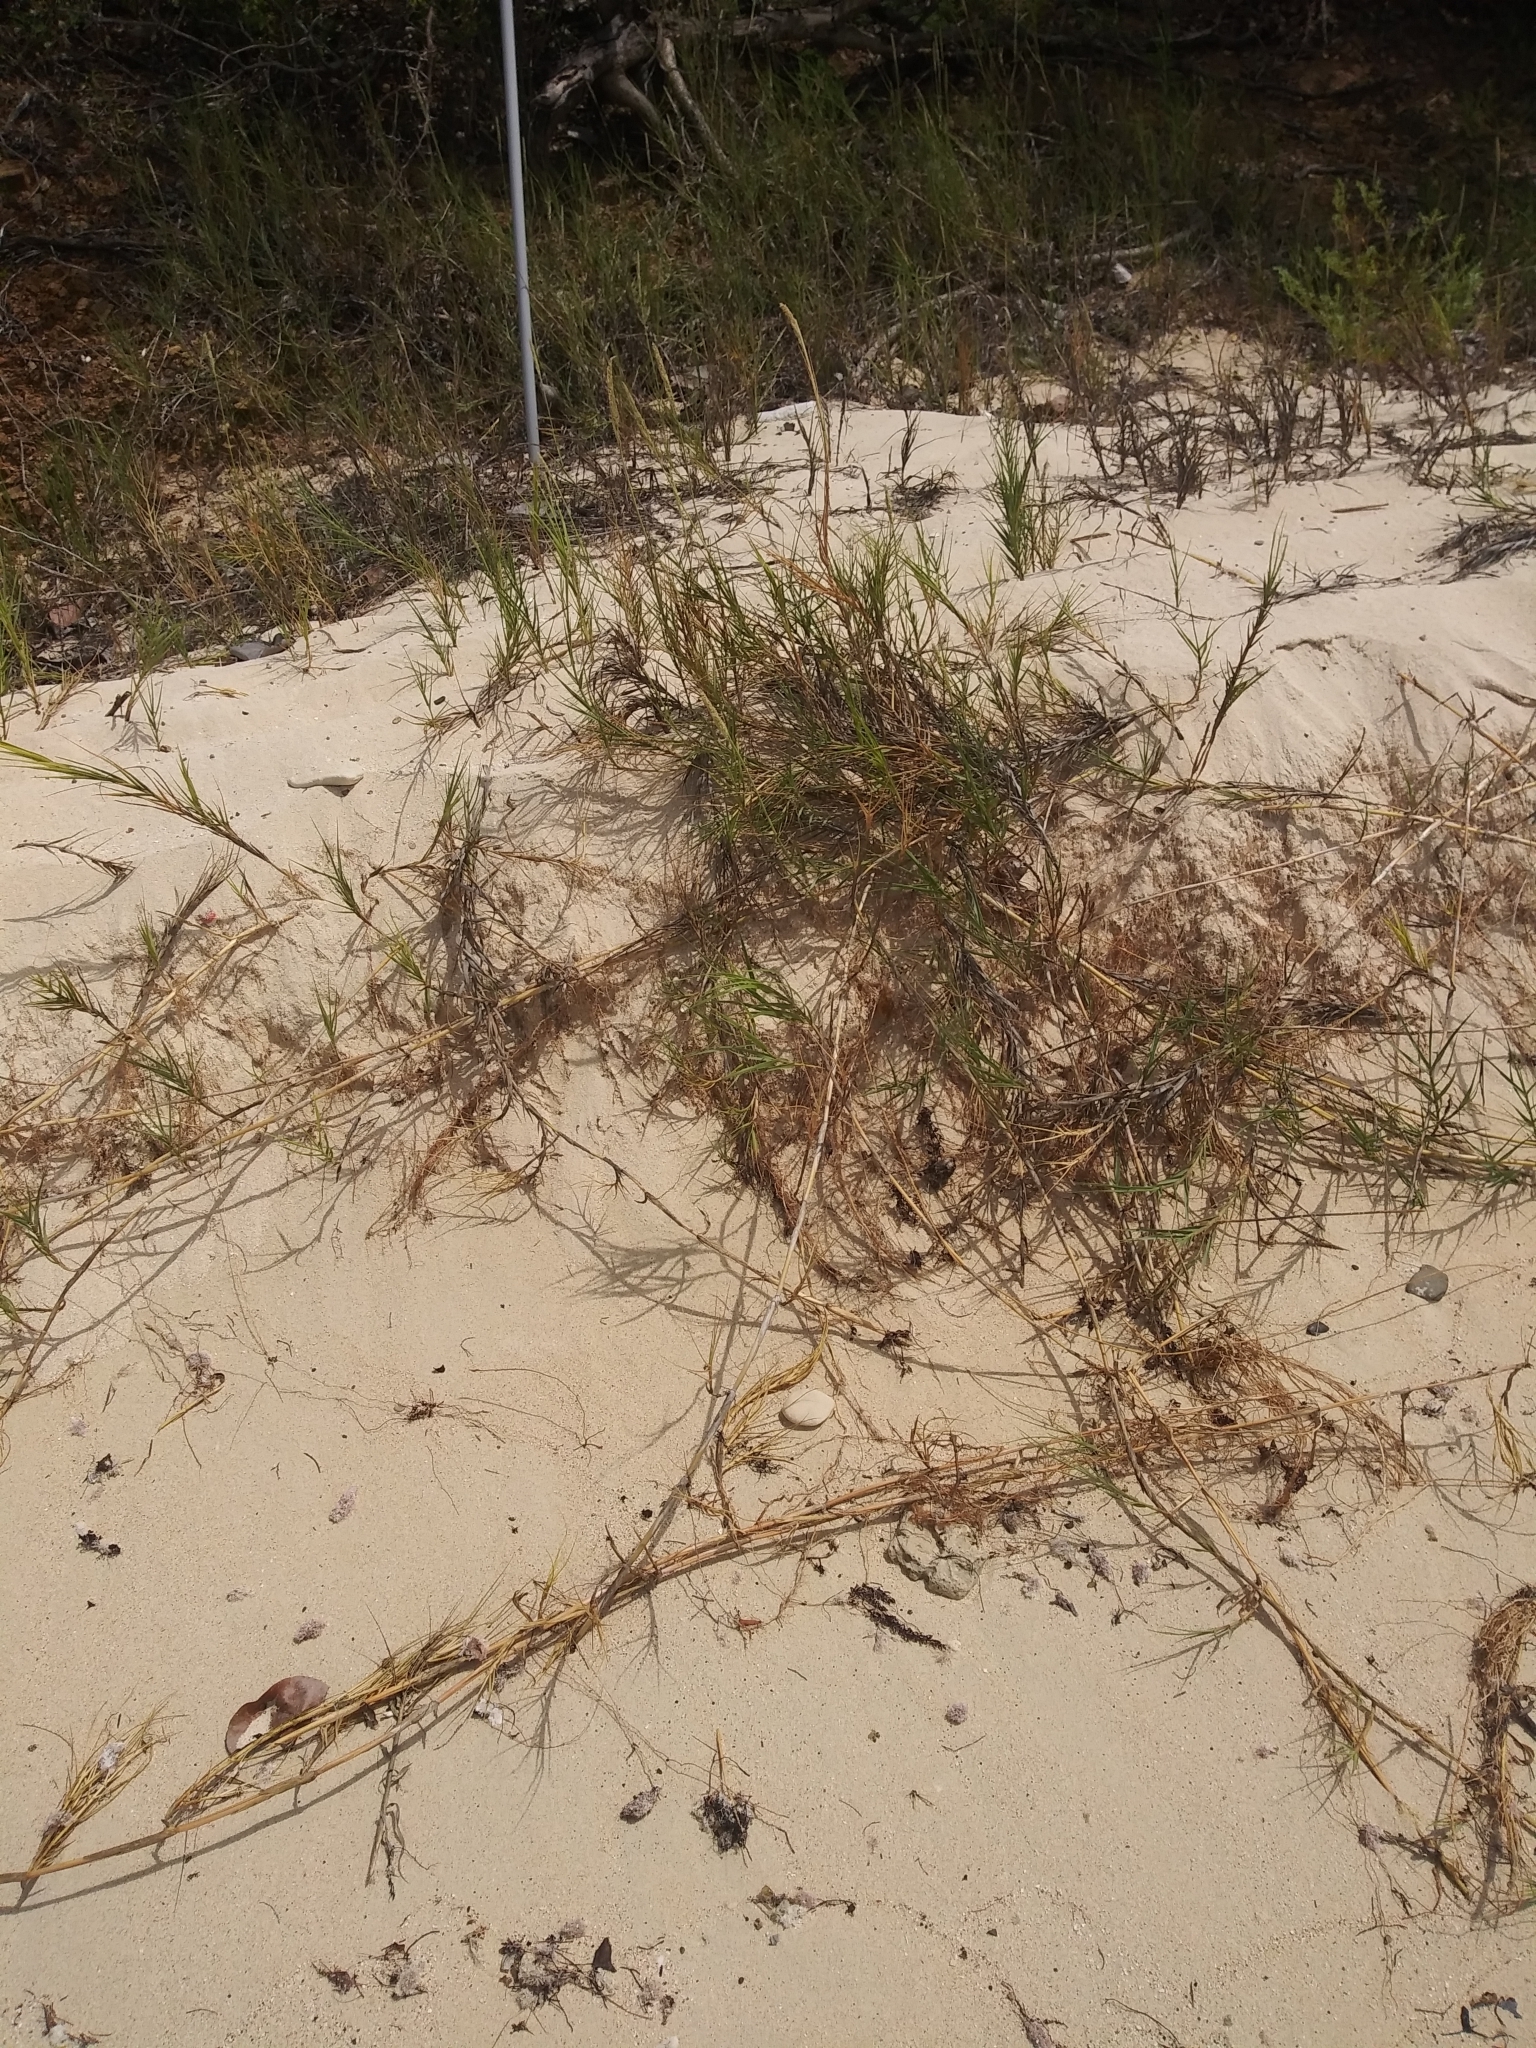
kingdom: Plantae
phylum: Tracheophyta
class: Liliopsida
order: Poales
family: Poaceae
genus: Sporobolus
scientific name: Sporobolus virginicus
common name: Beach dropseed
